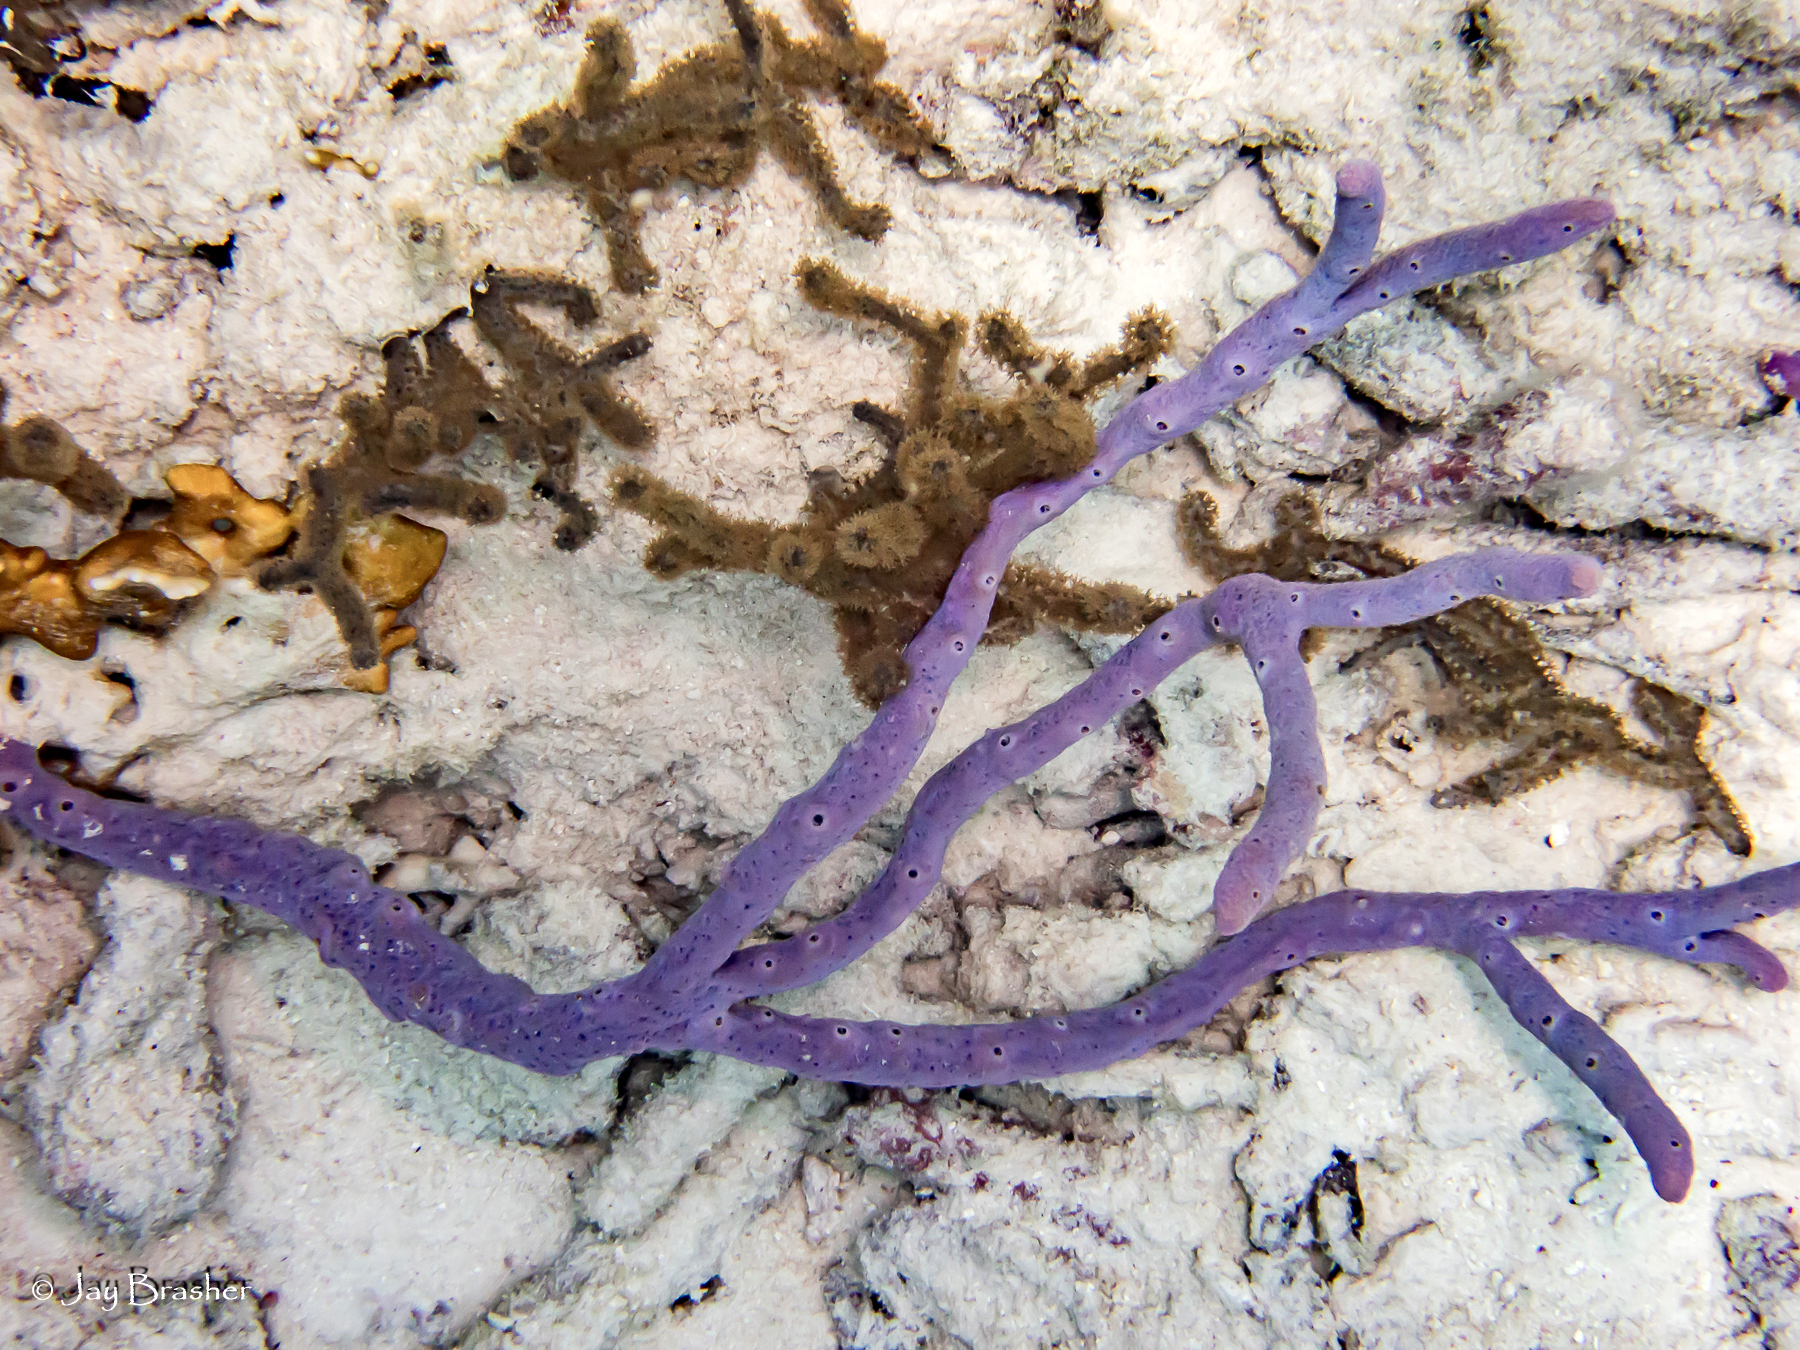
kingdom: Animalia
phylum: Porifera
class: Demospongiae
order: Verongiida
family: Aplysinidae
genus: Aplysina
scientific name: Aplysina cauliformis
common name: Branching candle sponge
